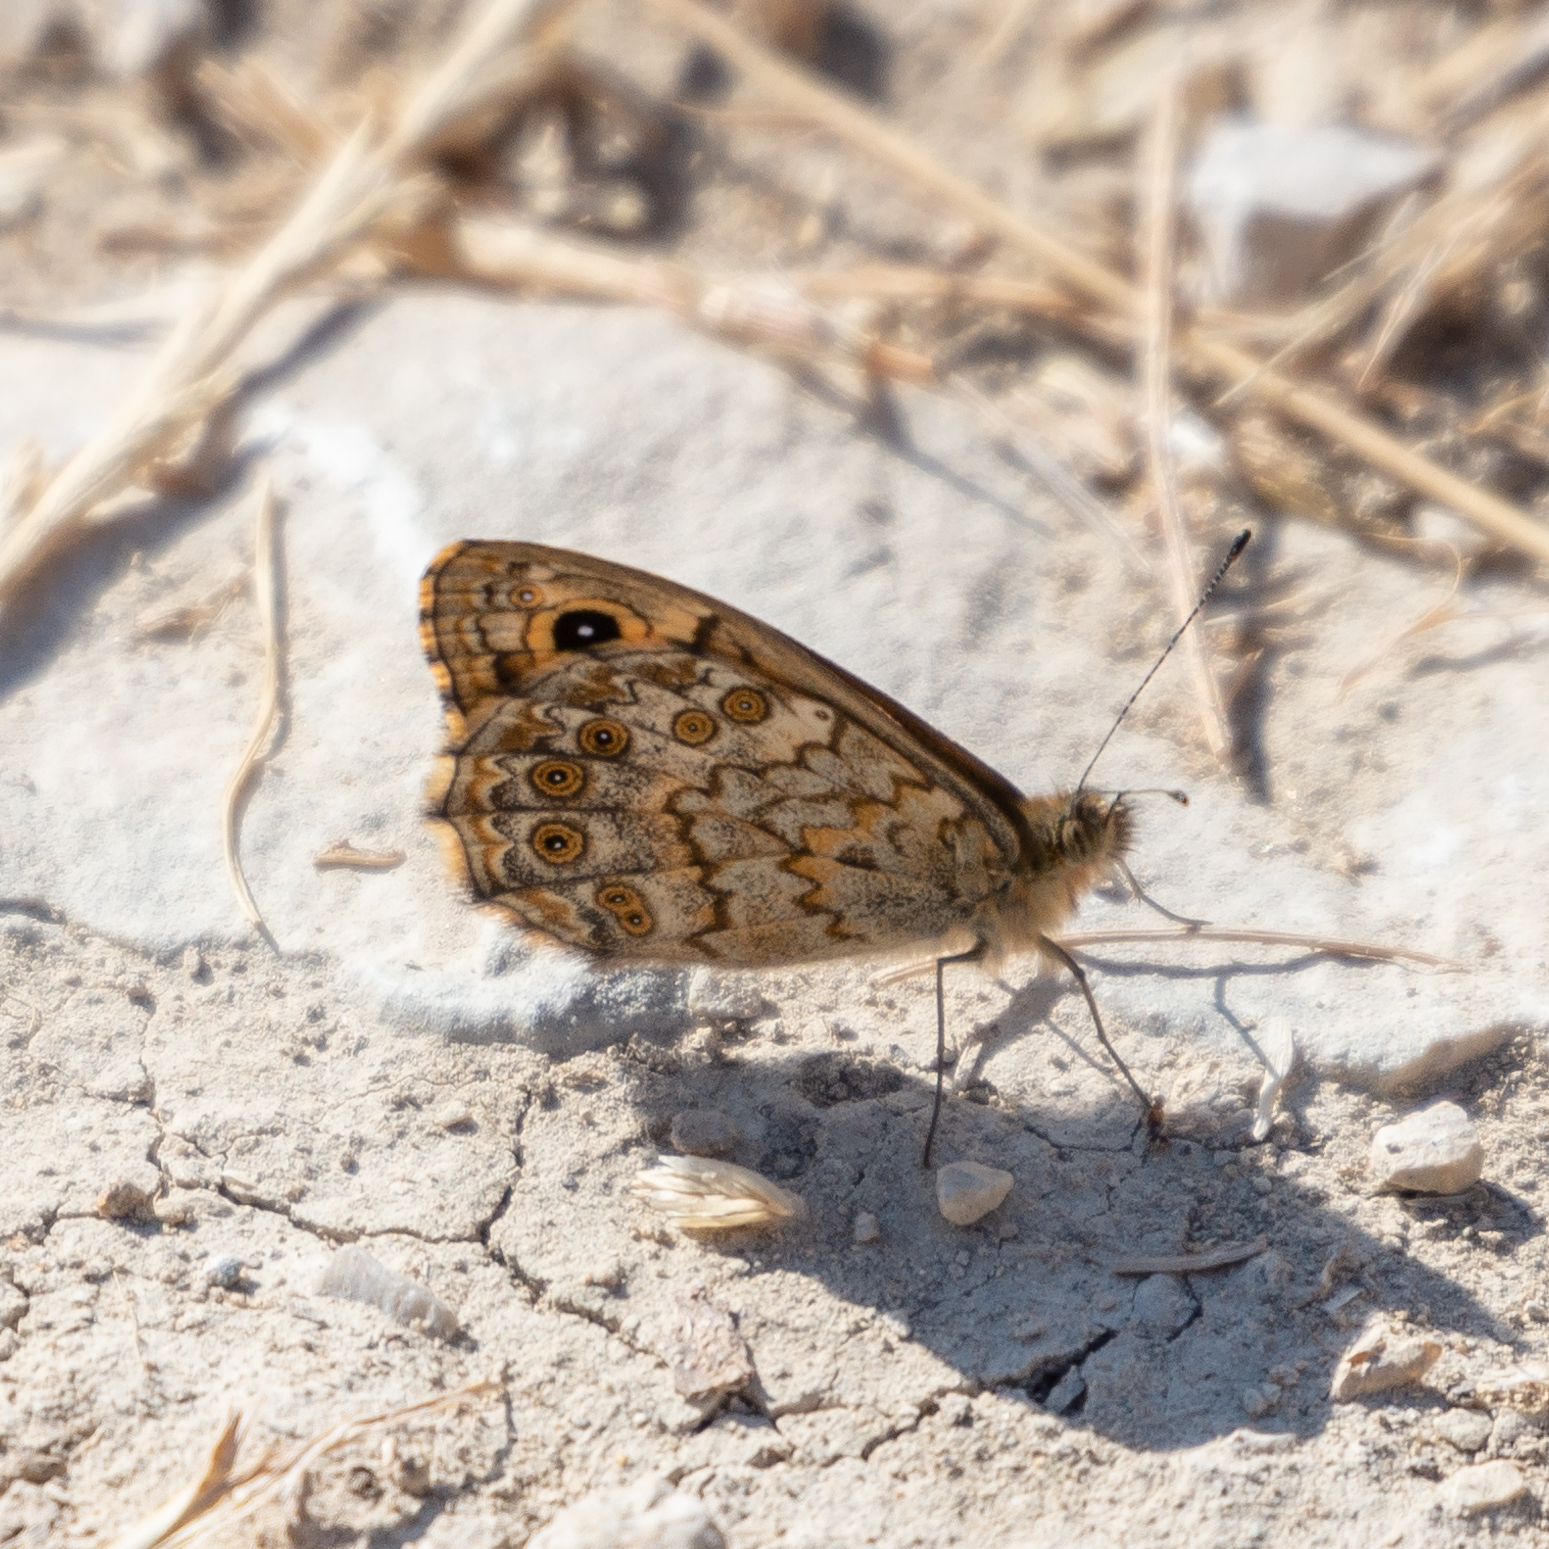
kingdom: Animalia
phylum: Arthropoda
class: Insecta
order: Lepidoptera
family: Nymphalidae
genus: Pararge
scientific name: Pararge Lasiommata megera
